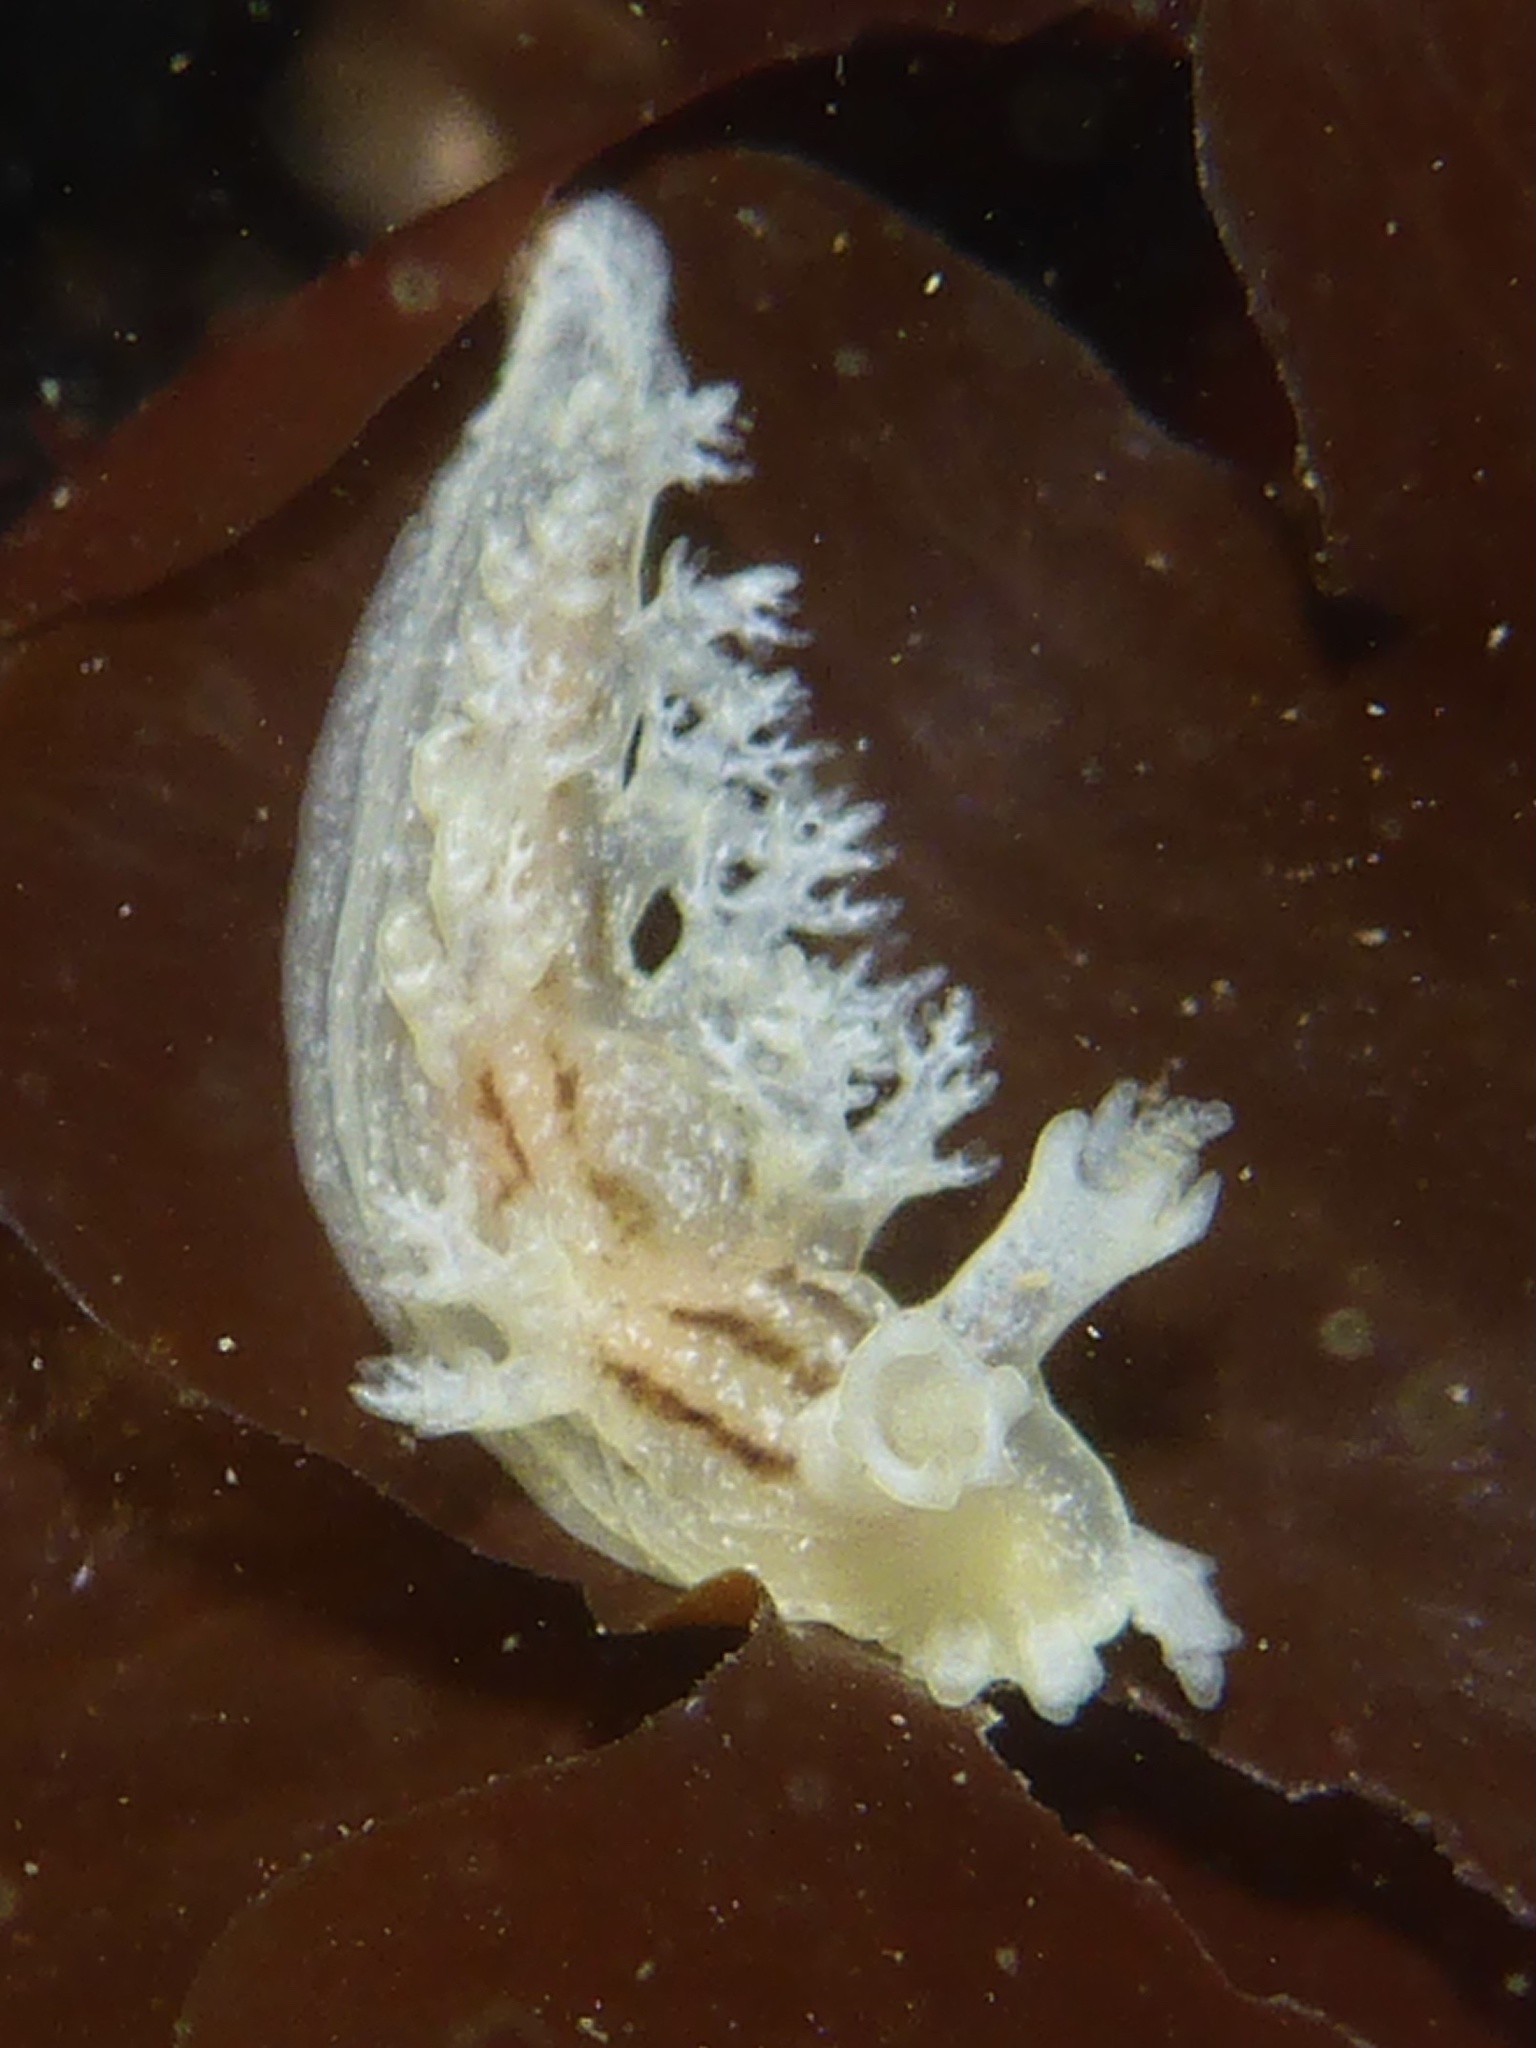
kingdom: Animalia
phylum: Mollusca
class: Gastropoda
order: Nudibranchia
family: Dendronotidae
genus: Dendronotus
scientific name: Dendronotus subramosus
